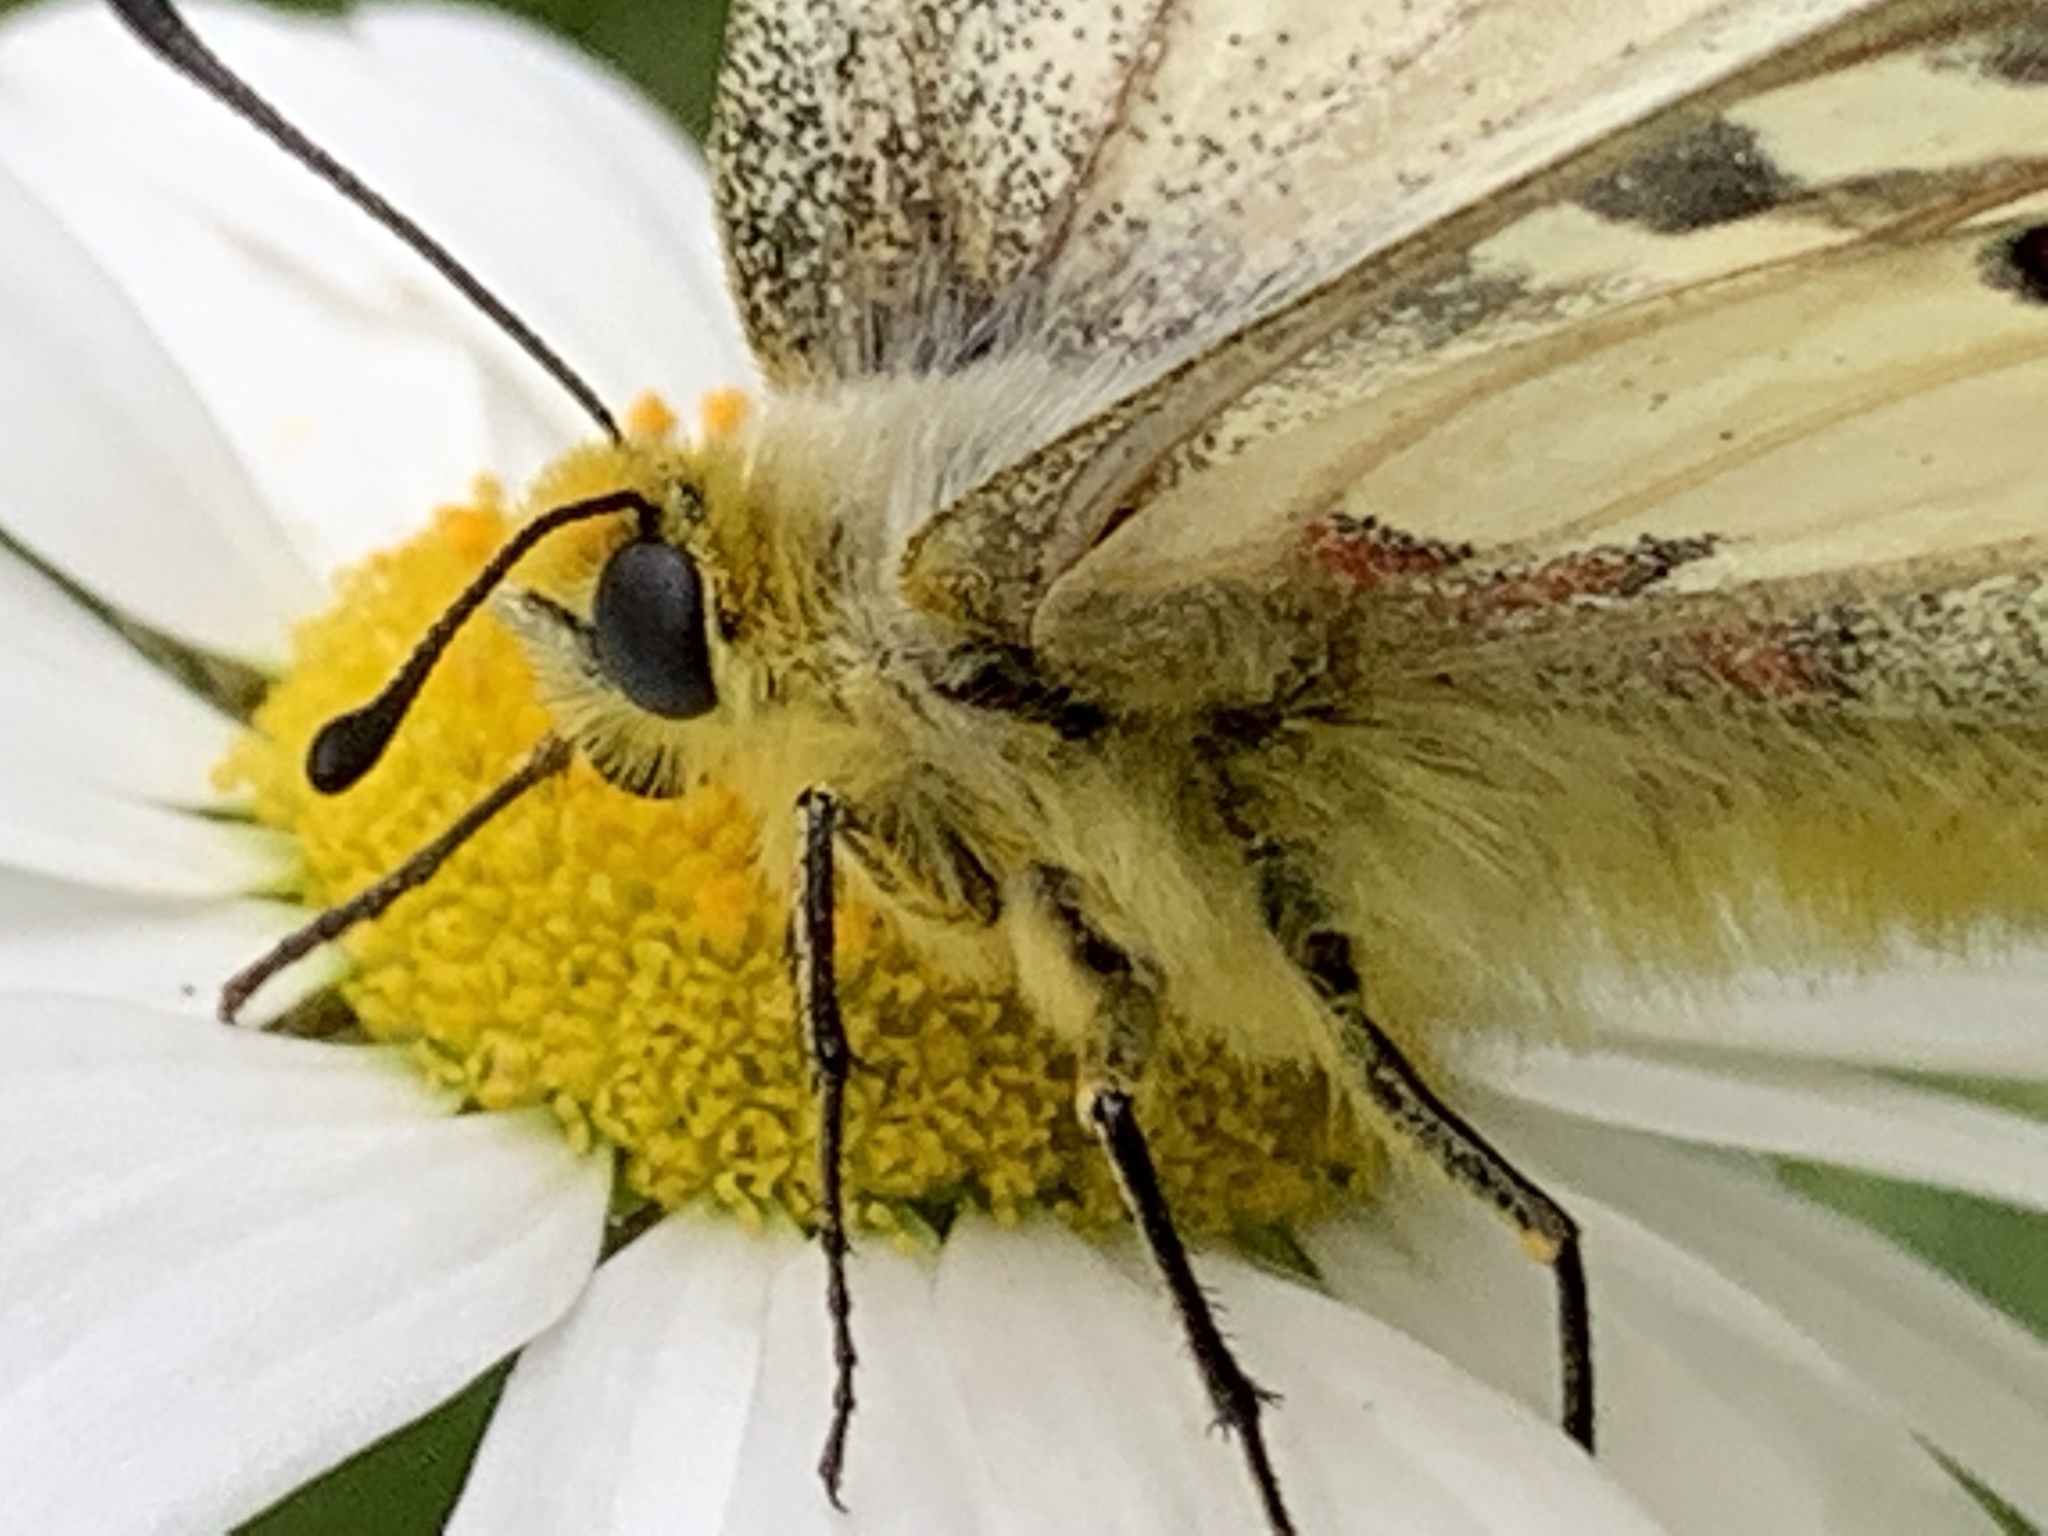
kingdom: Animalia
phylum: Arthropoda
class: Insecta
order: Lepidoptera
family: Papilionidae
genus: Parnassius
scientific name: Parnassius clodius
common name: American apollo
